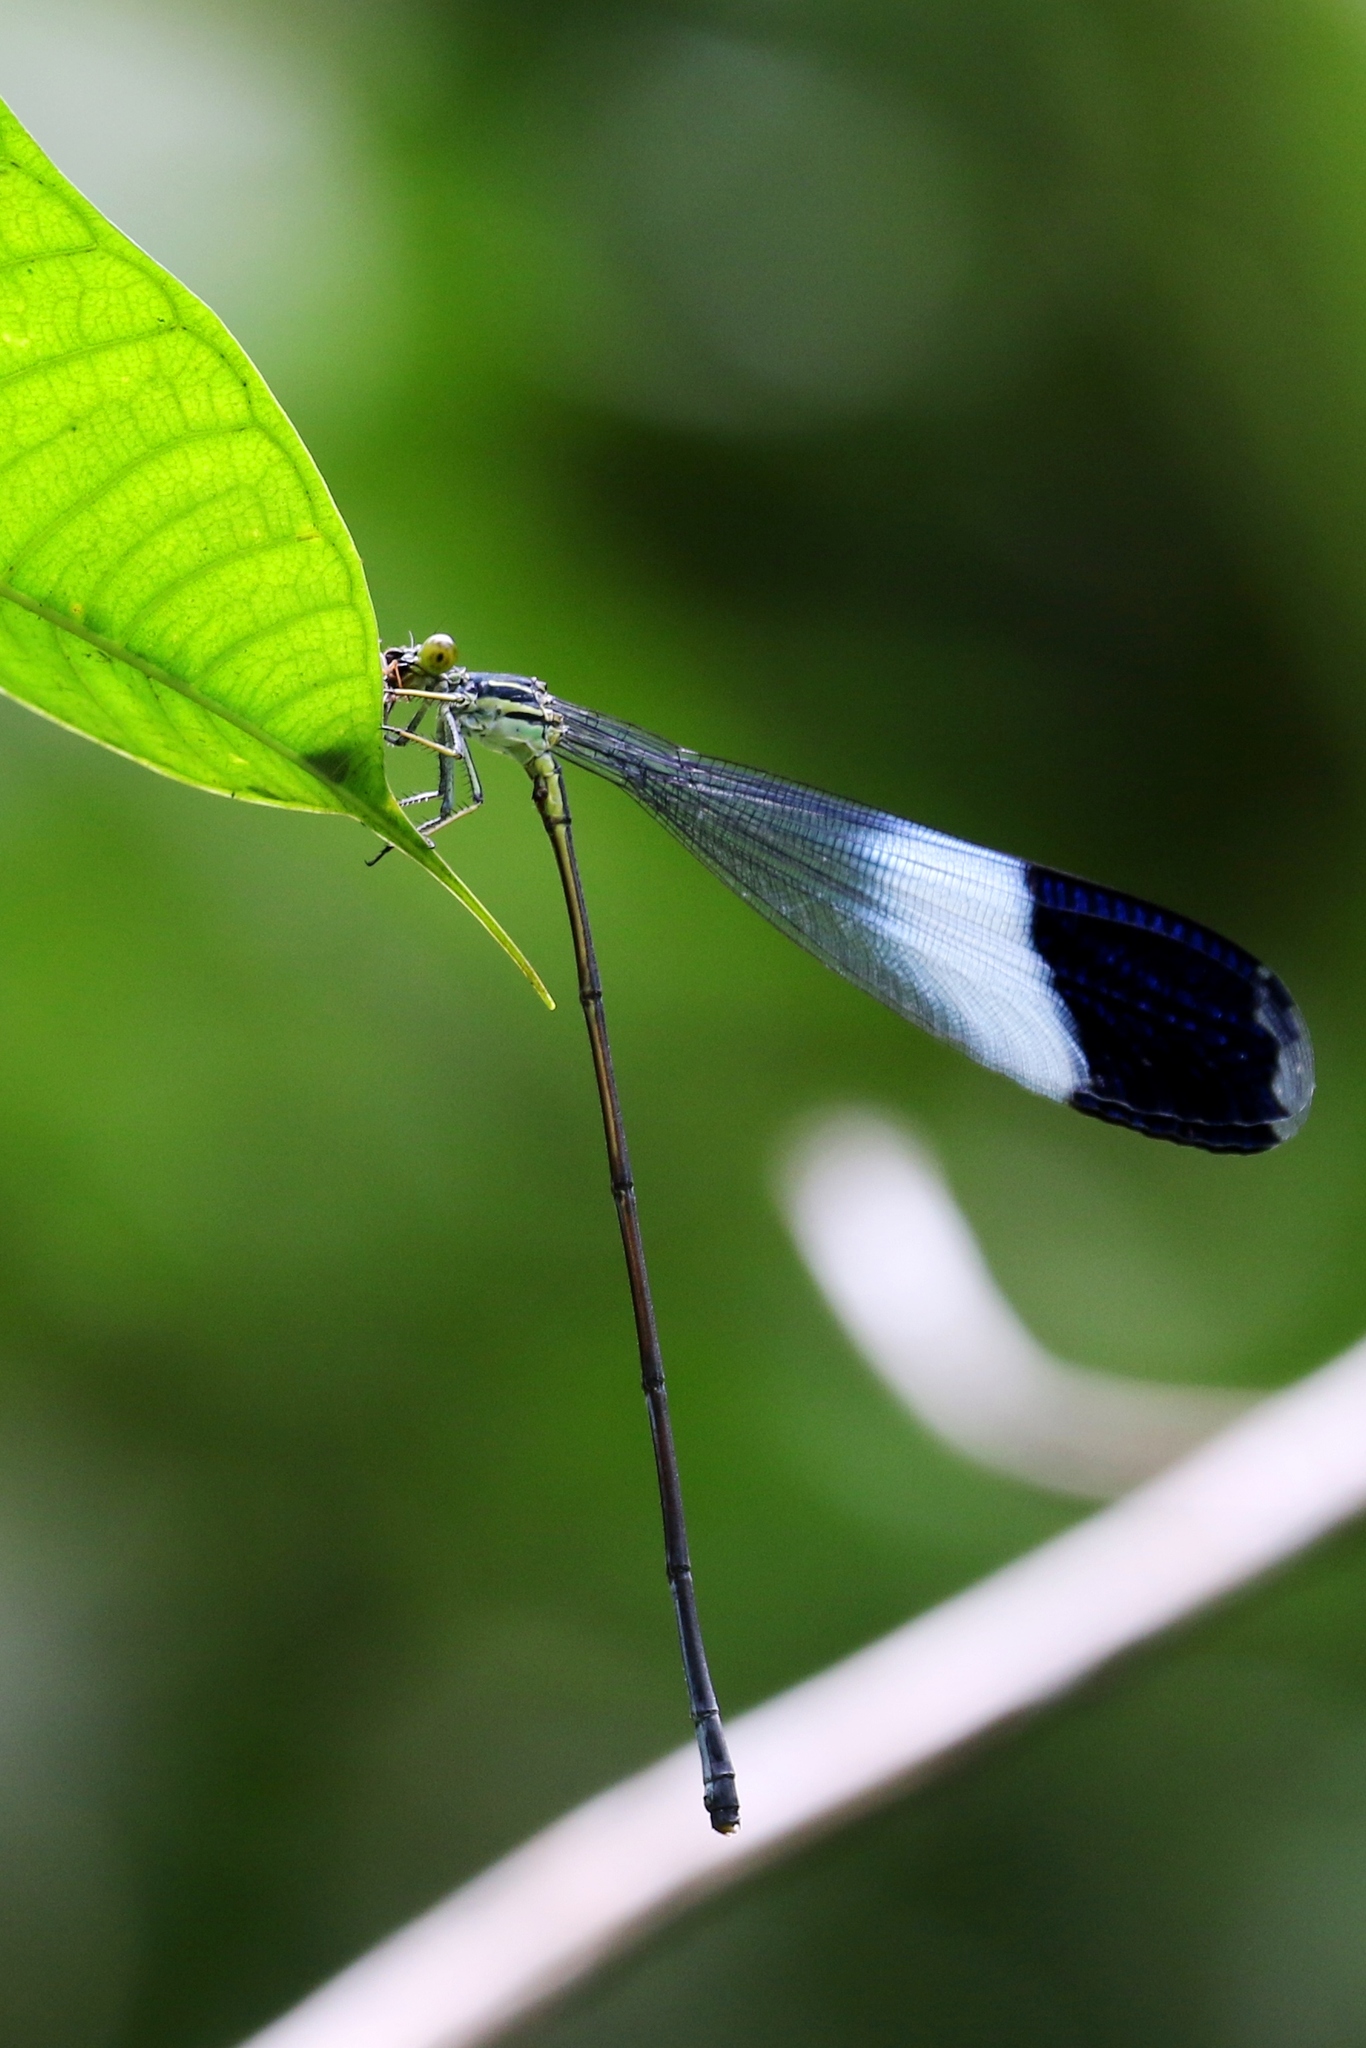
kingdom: Animalia
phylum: Arthropoda
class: Insecta
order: Odonata
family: Coenagrionidae
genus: Megaloprepus
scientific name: Megaloprepus caerulatus
